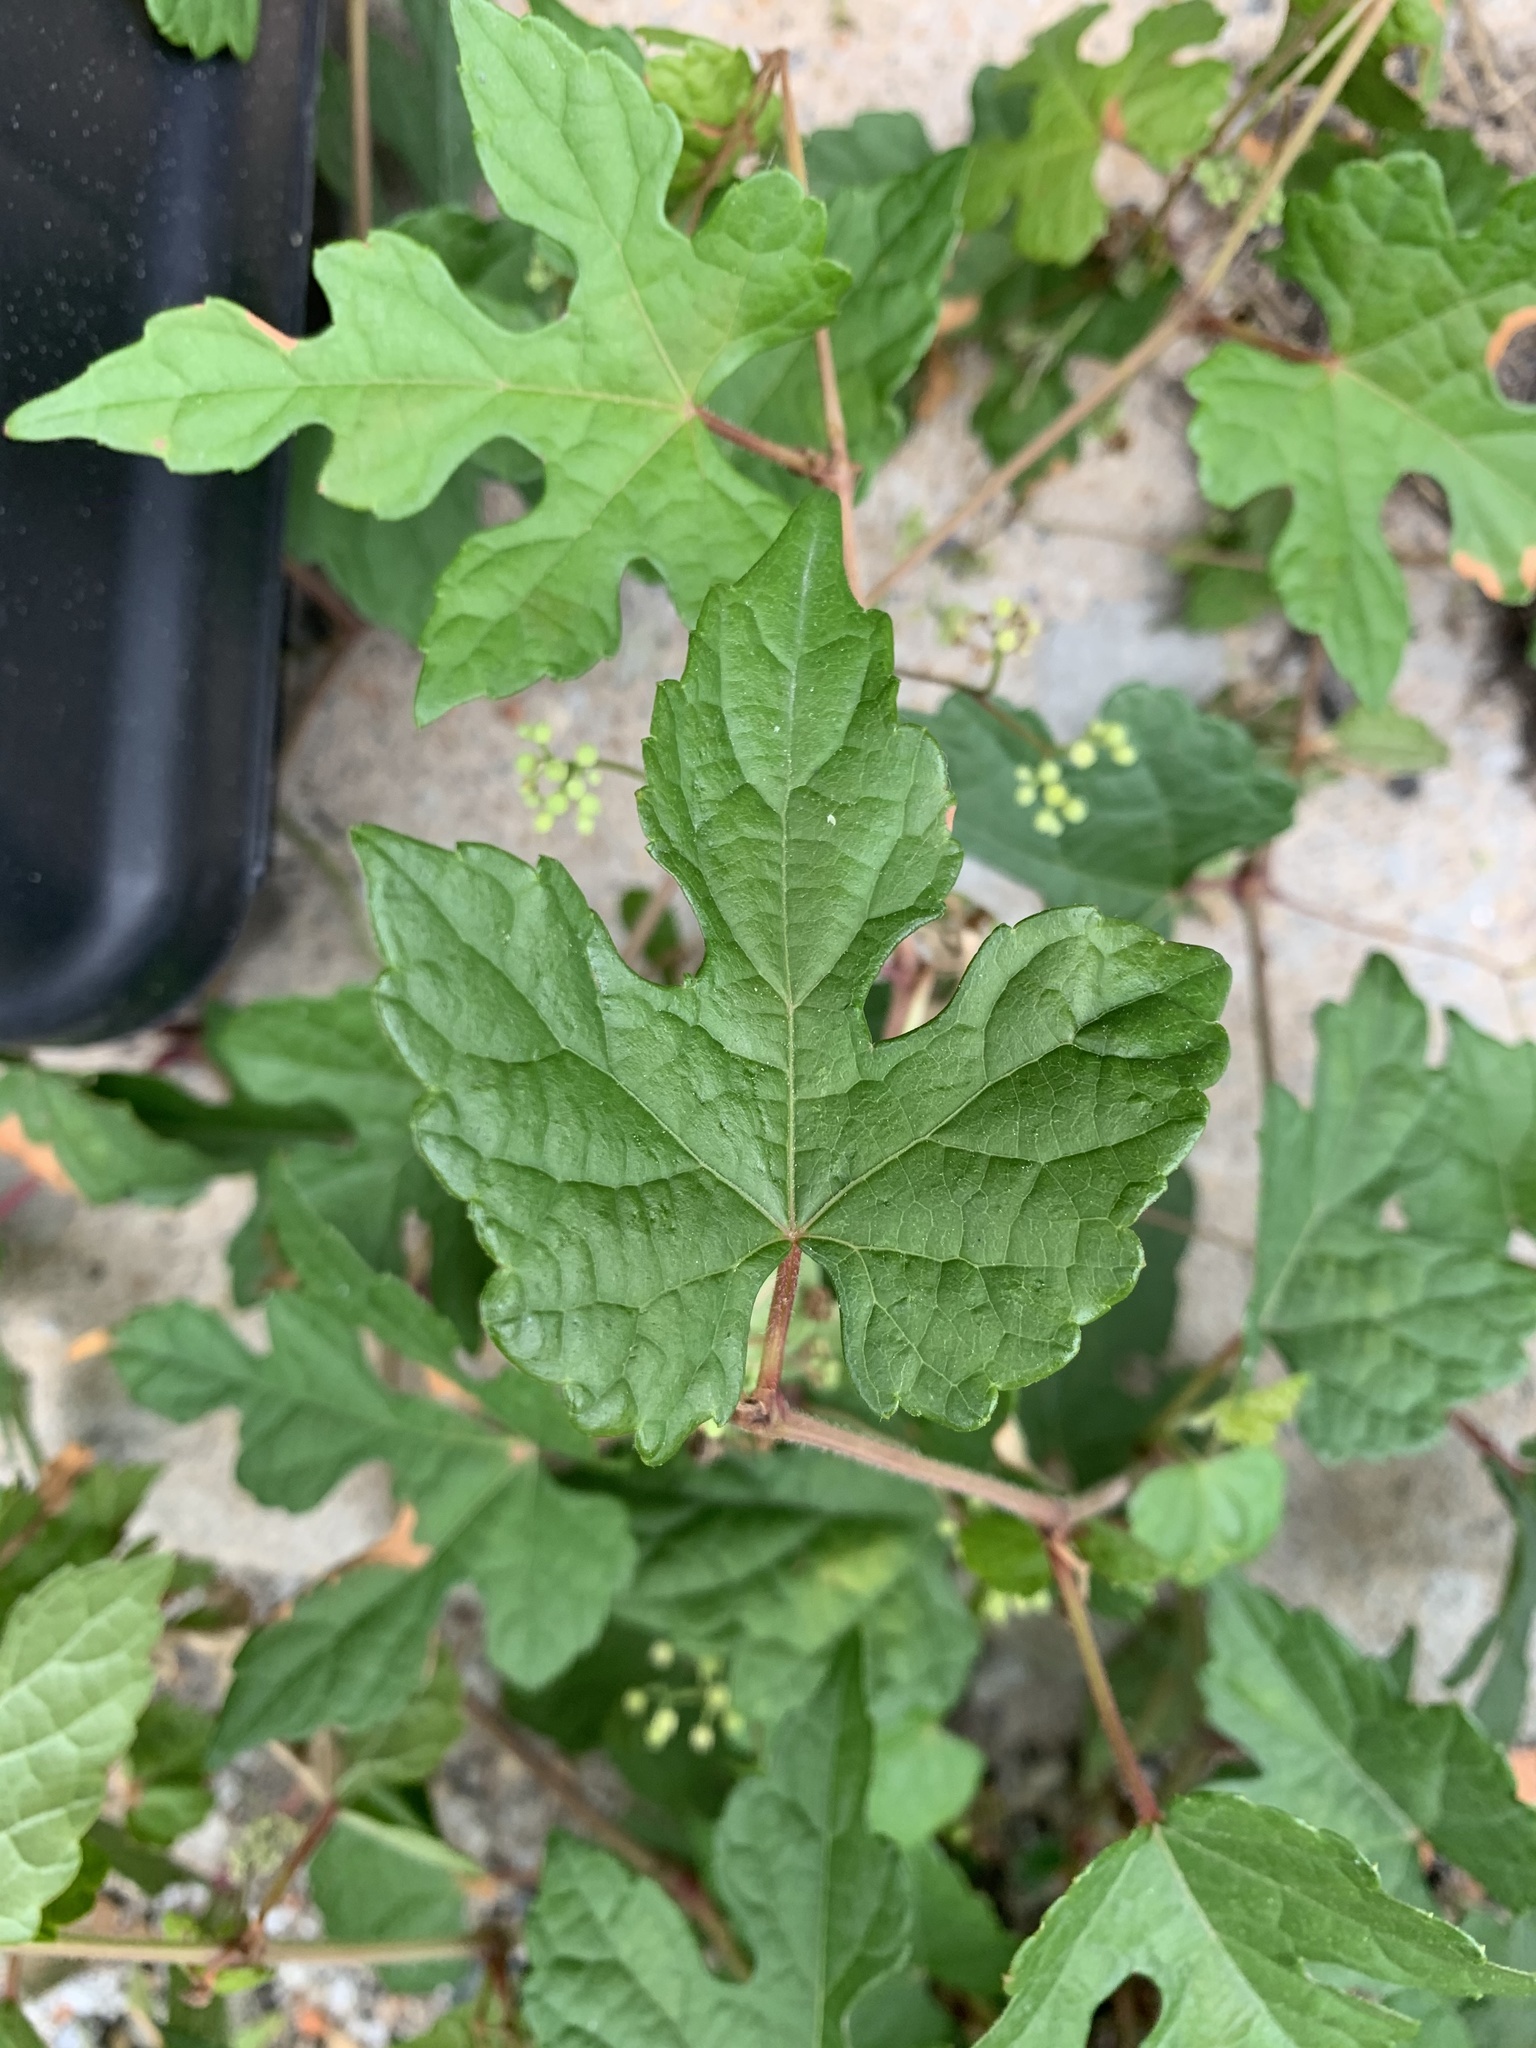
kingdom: Plantae
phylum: Tracheophyta
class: Magnoliopsida
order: Vitales
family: Vitaceae
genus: Ampelopsis
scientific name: Ampelopsis glandulosa
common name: Amur peppervine
